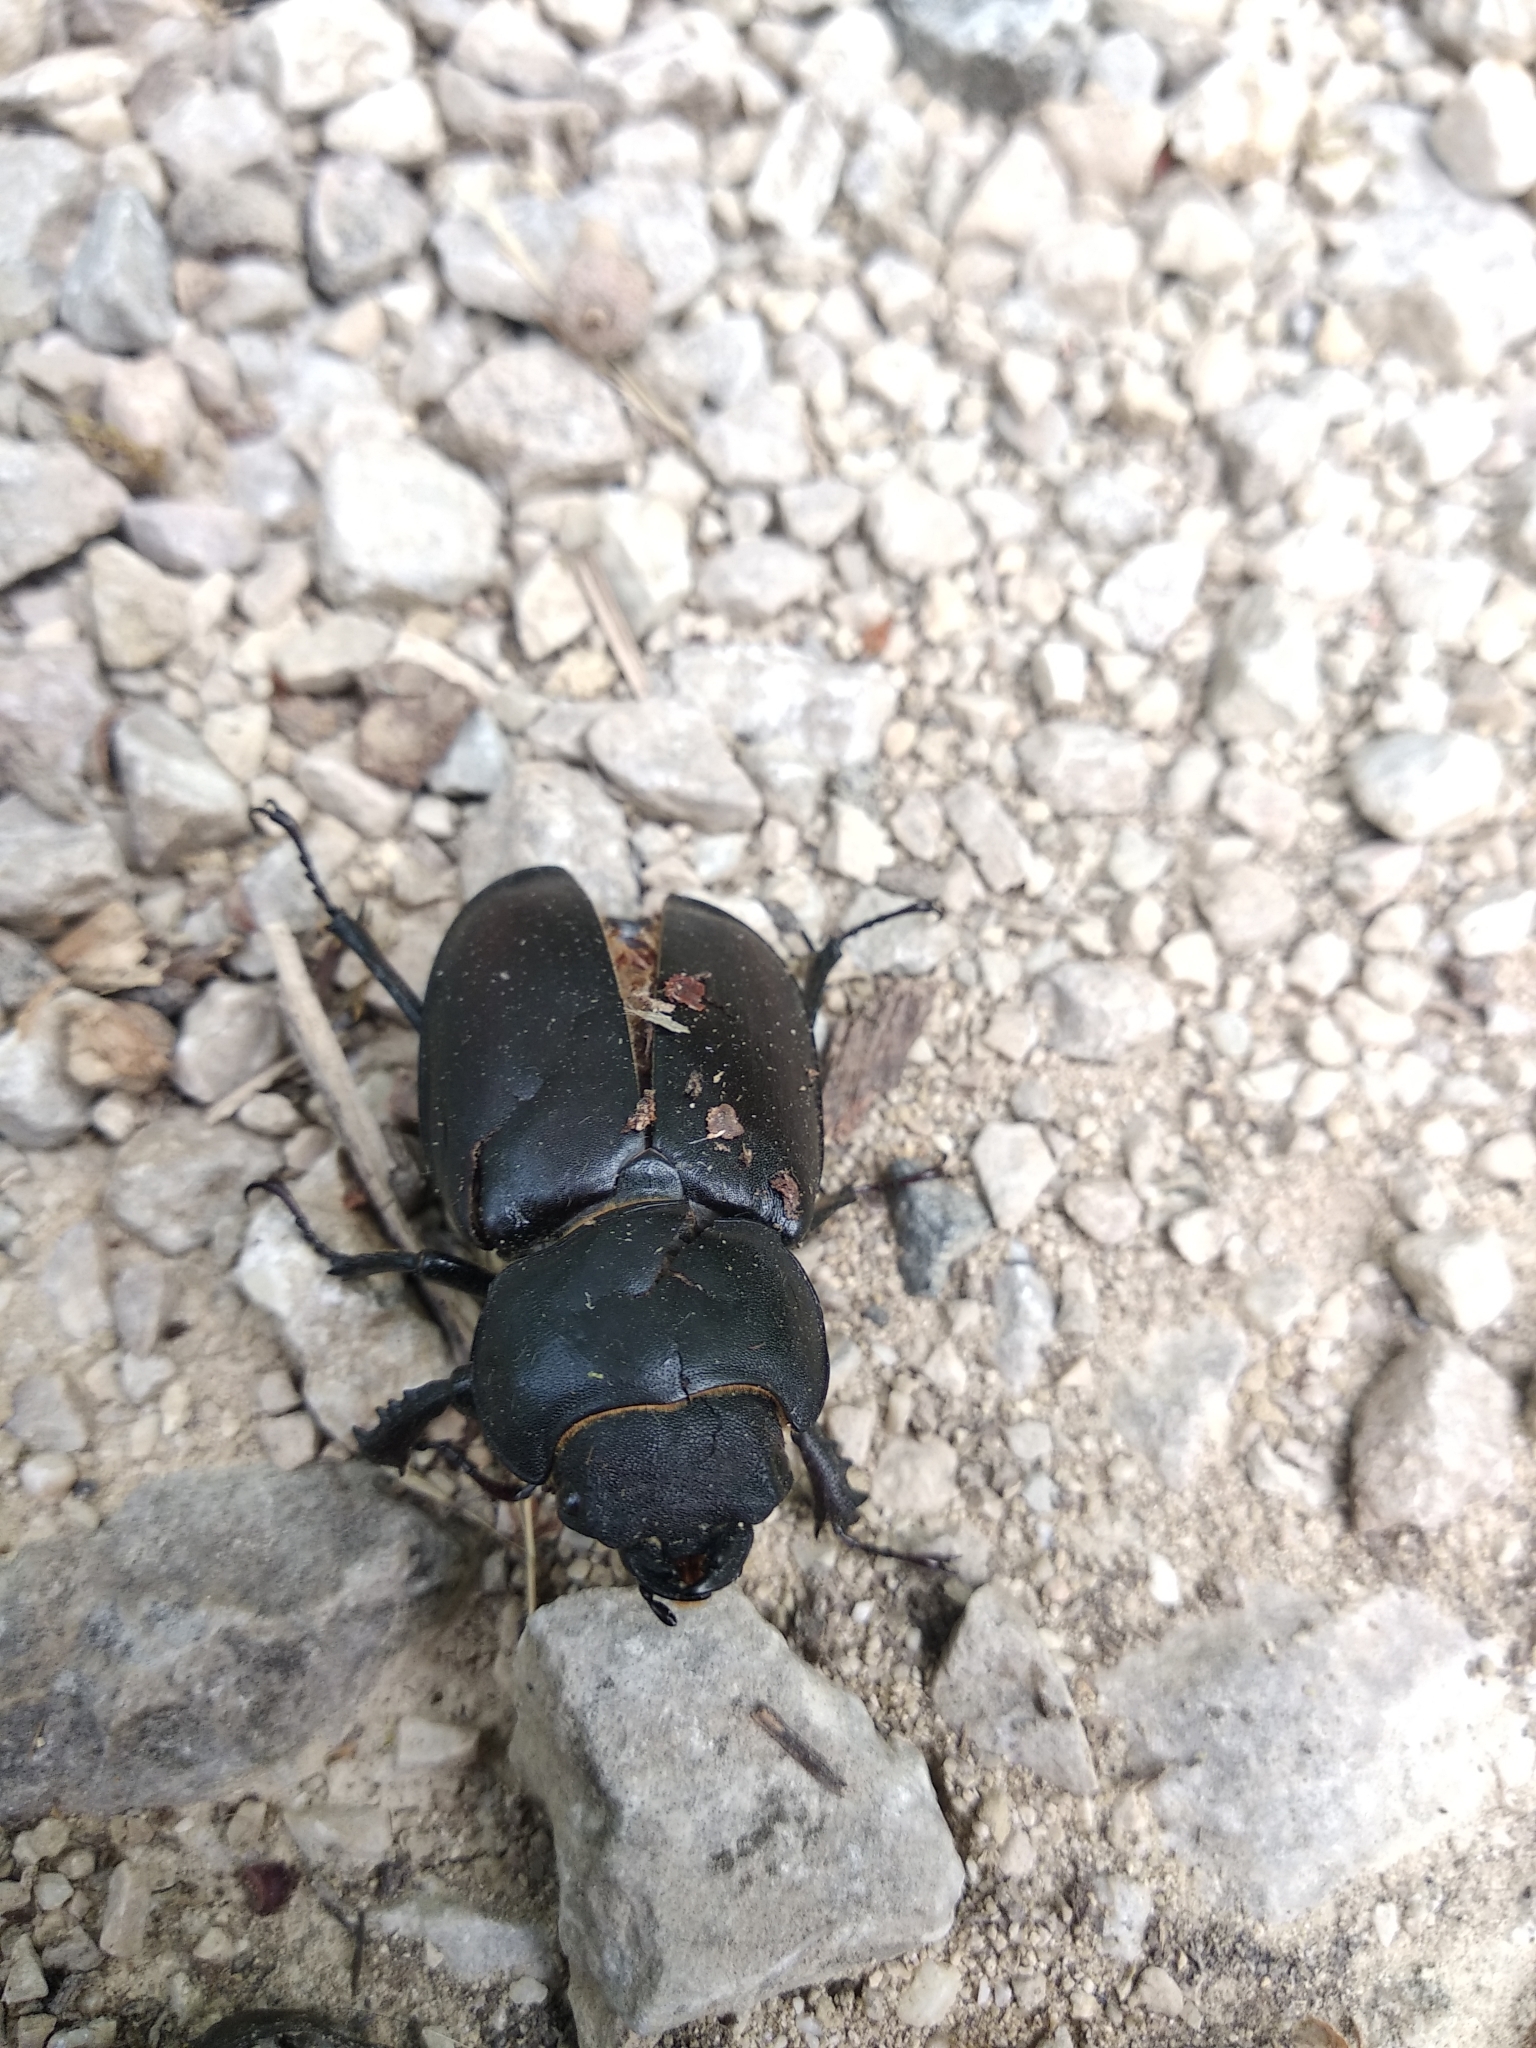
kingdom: Animalia
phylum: Arthropoda
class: Insecta
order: Coleoptera
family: Lucanidae
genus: Lucanus
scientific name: Lucanus cervus
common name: Stag beetle
